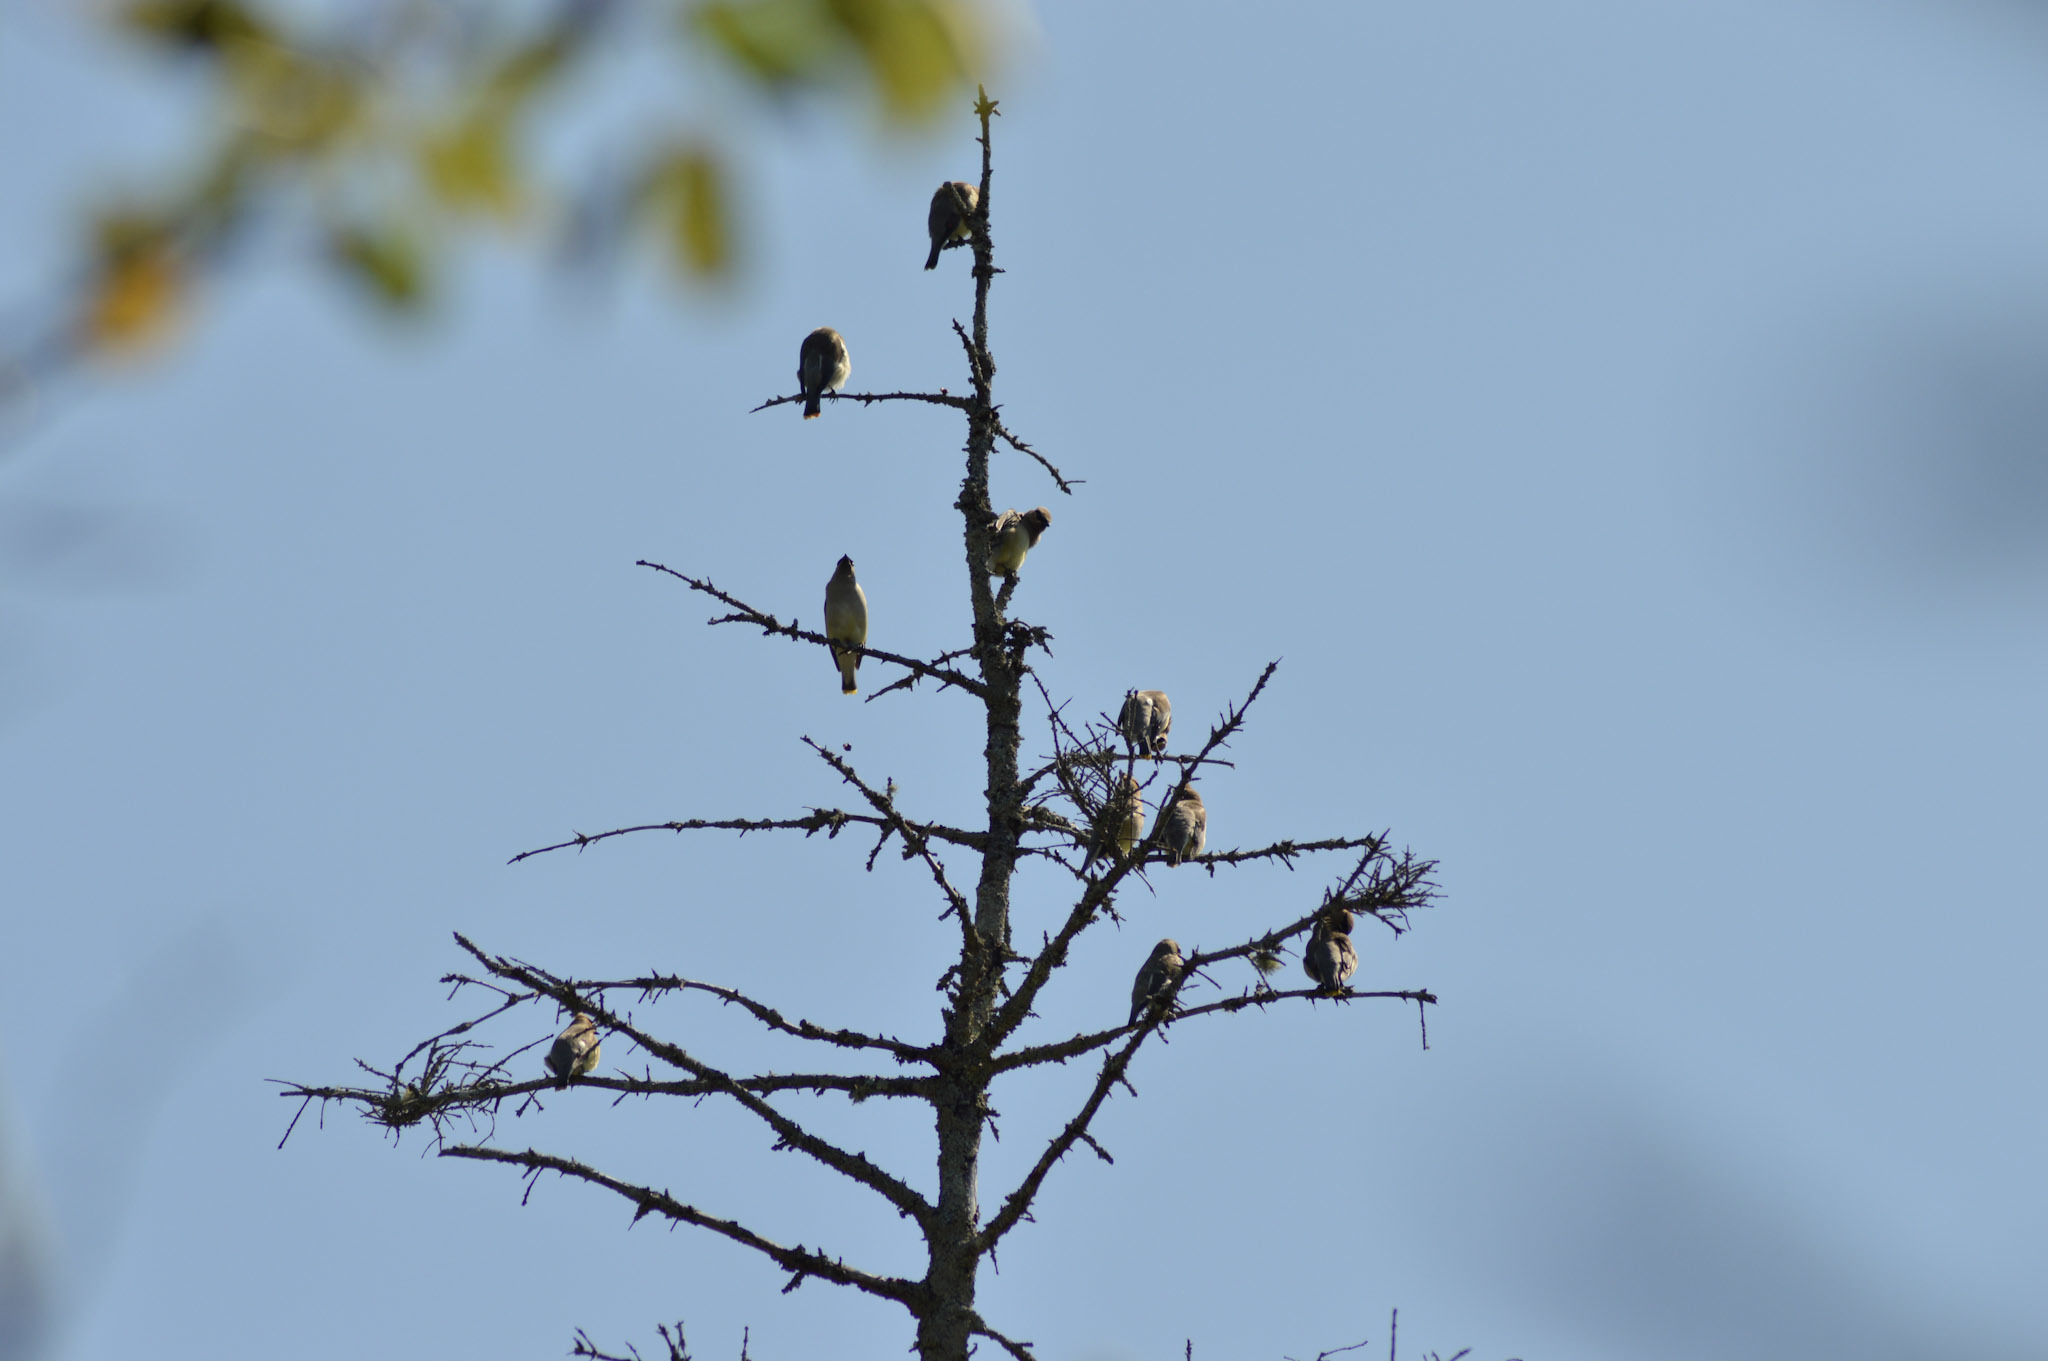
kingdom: Animalia
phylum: Chordata
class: Aves
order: Passeriformes
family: Bombycillidae
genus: Bombycilla
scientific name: Bombycilla cedrorum
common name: Cedar waxwing
